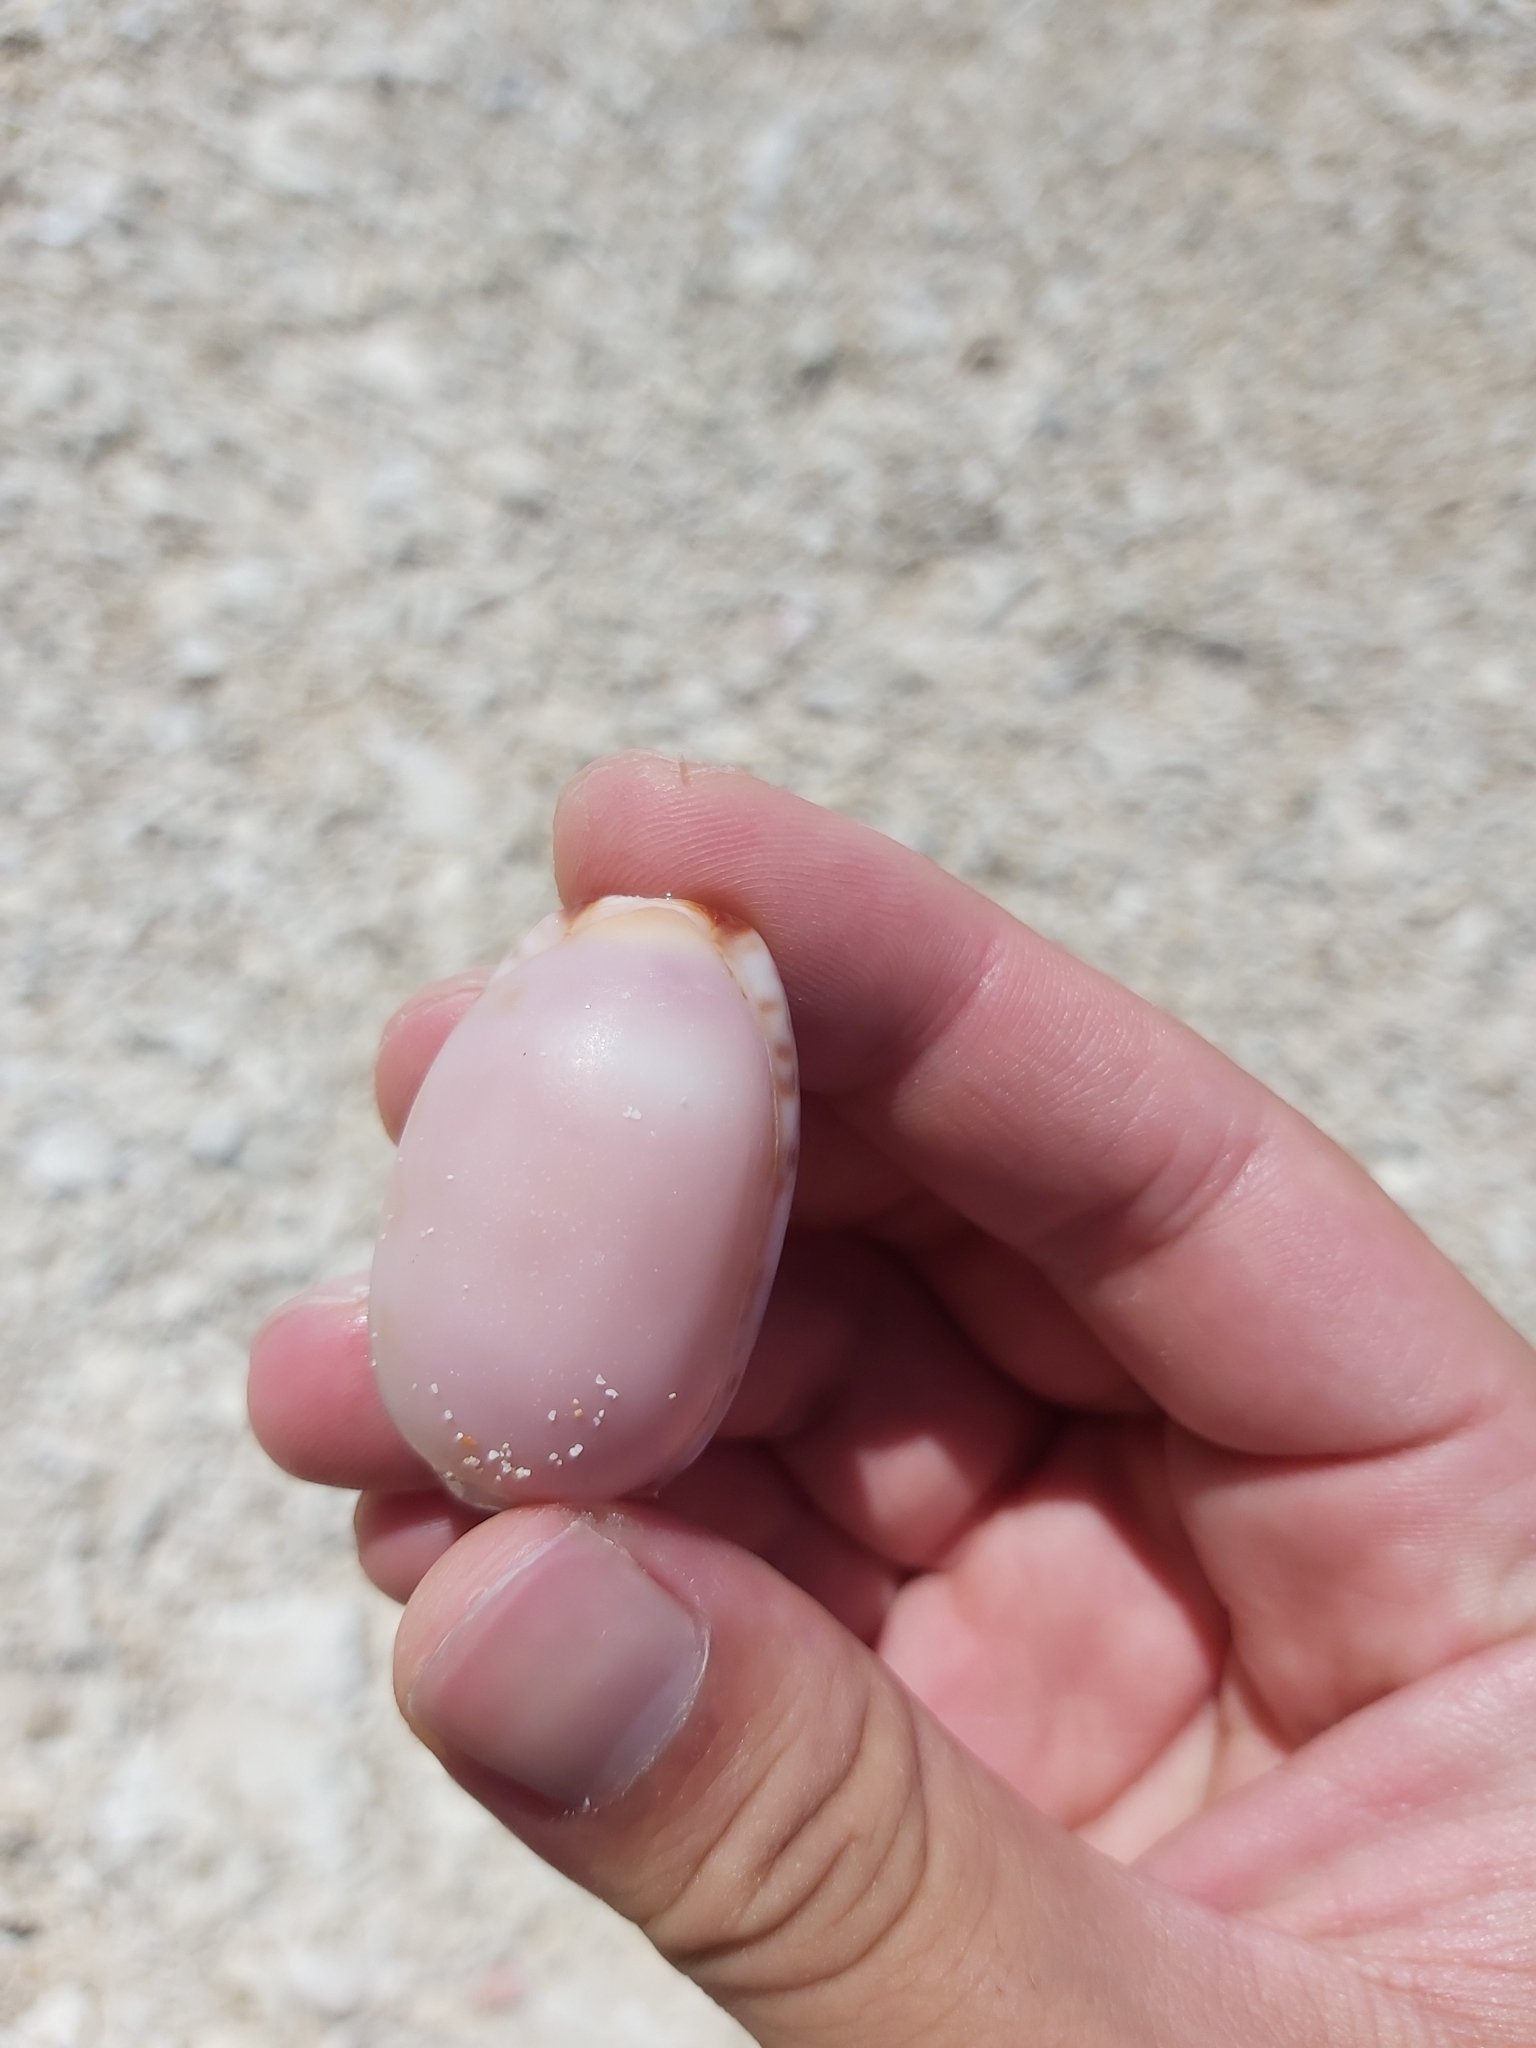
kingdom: Animalia
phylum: Mollusca
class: Gastropoda
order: Littorinimorpha
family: Cypraeidae
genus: Mauritia
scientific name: Mauritia arabica
